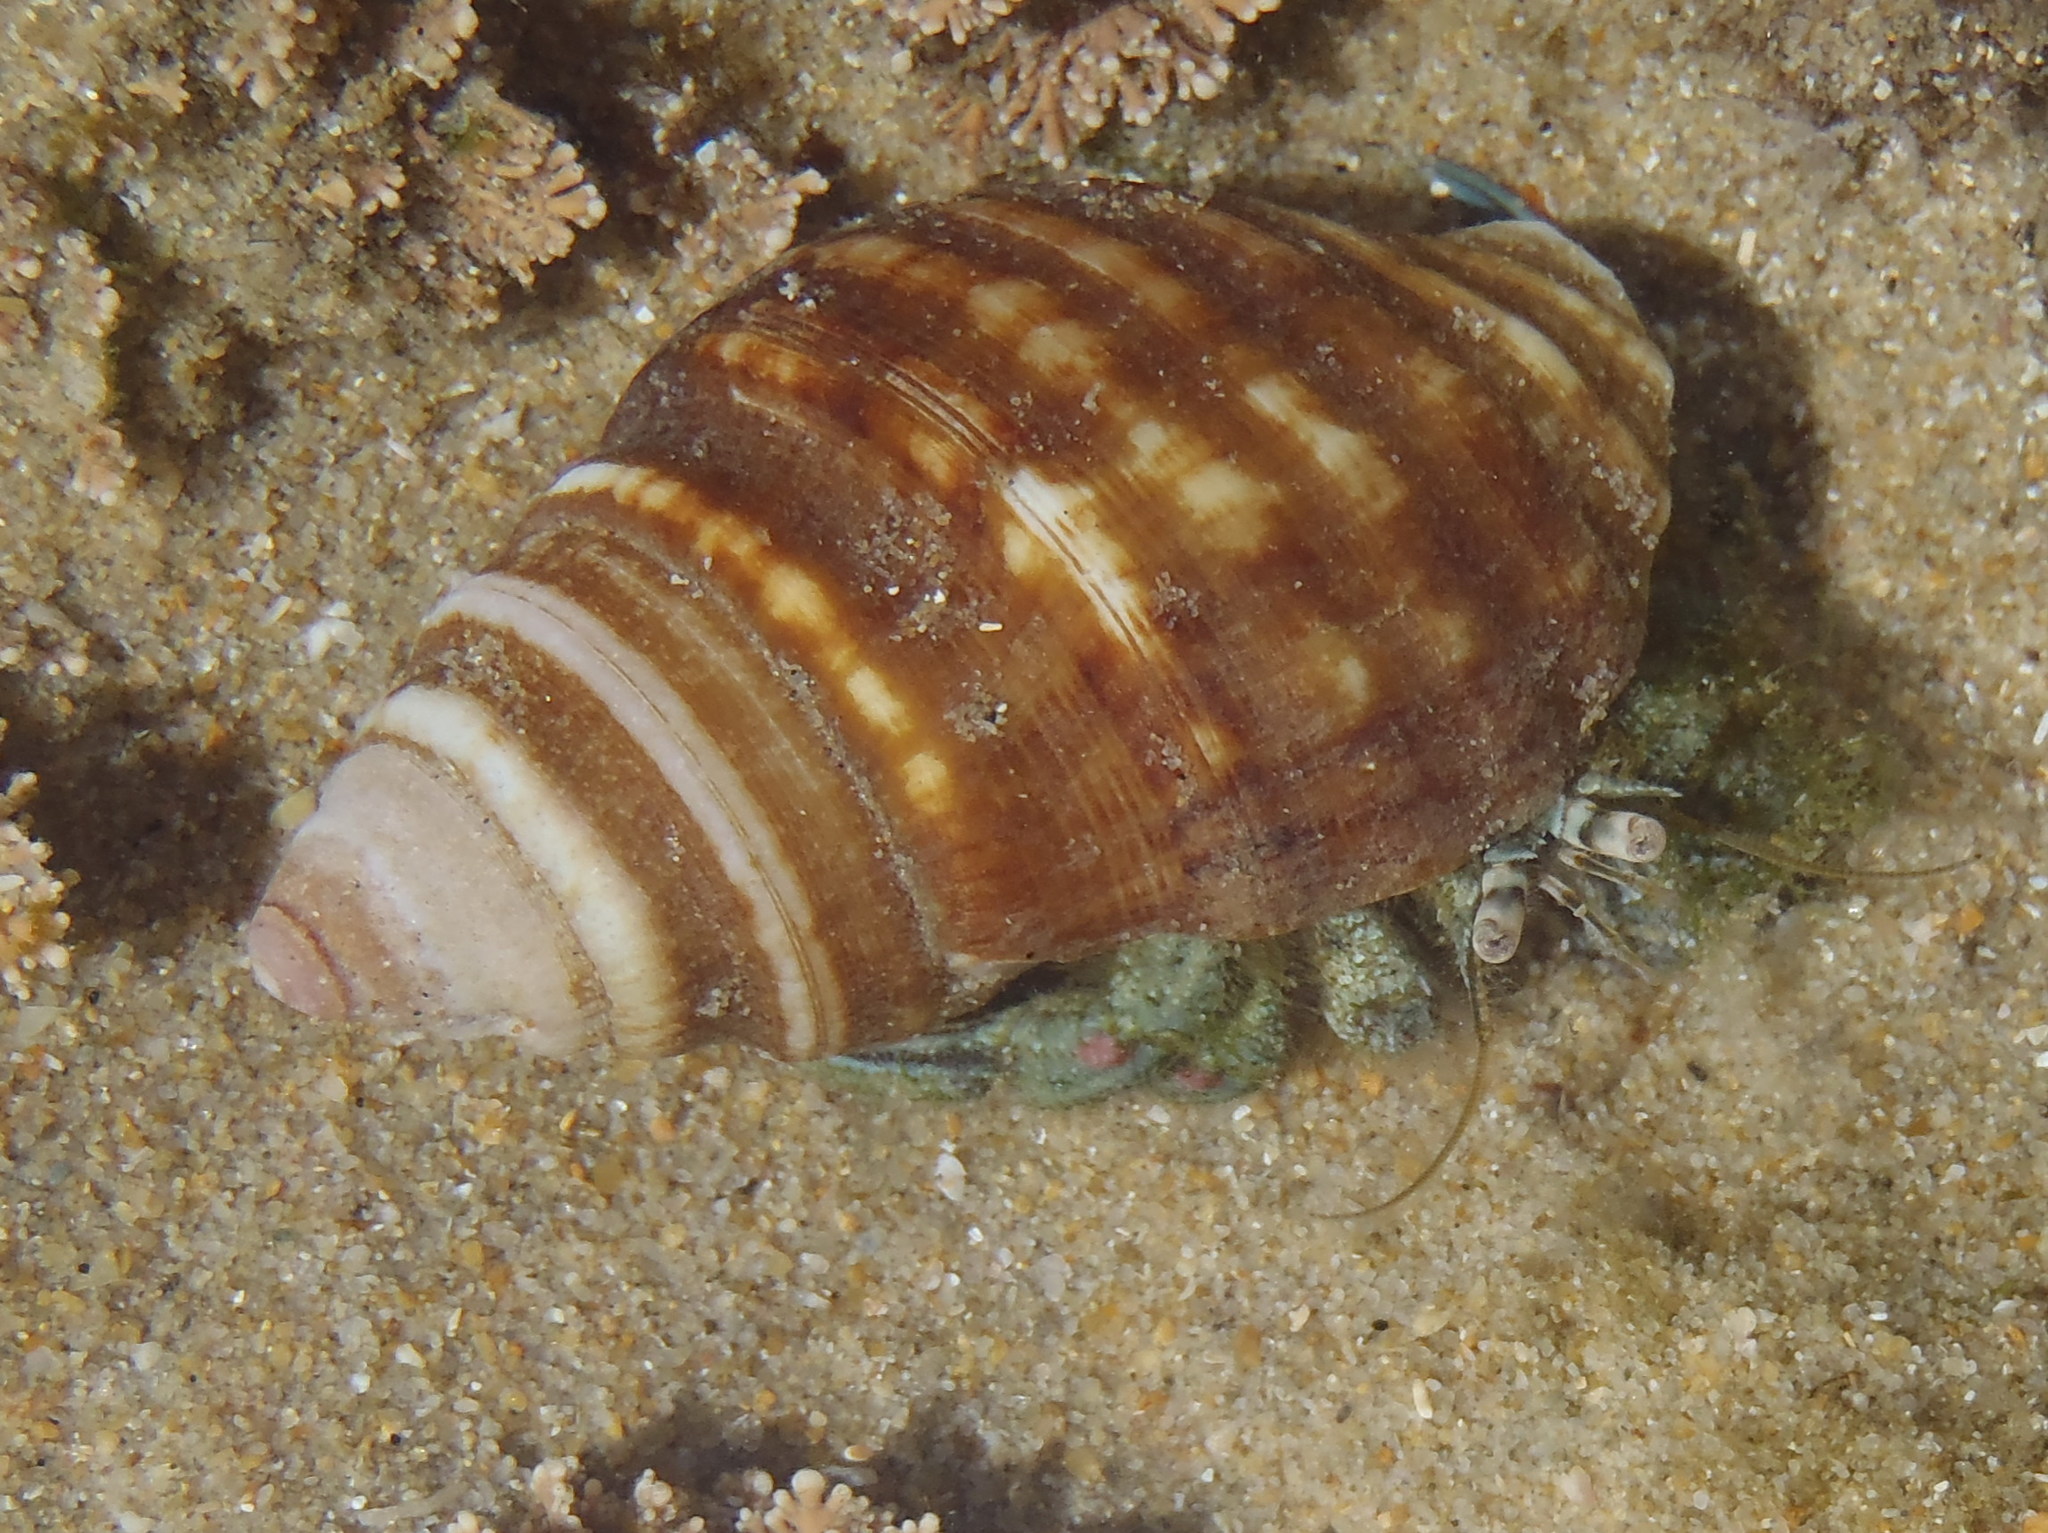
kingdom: Animalia
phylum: Arthropoda
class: Malacostraca
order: Decapoda
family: Diogenidae
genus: Diogenes
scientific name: Diogenes brevirostris
